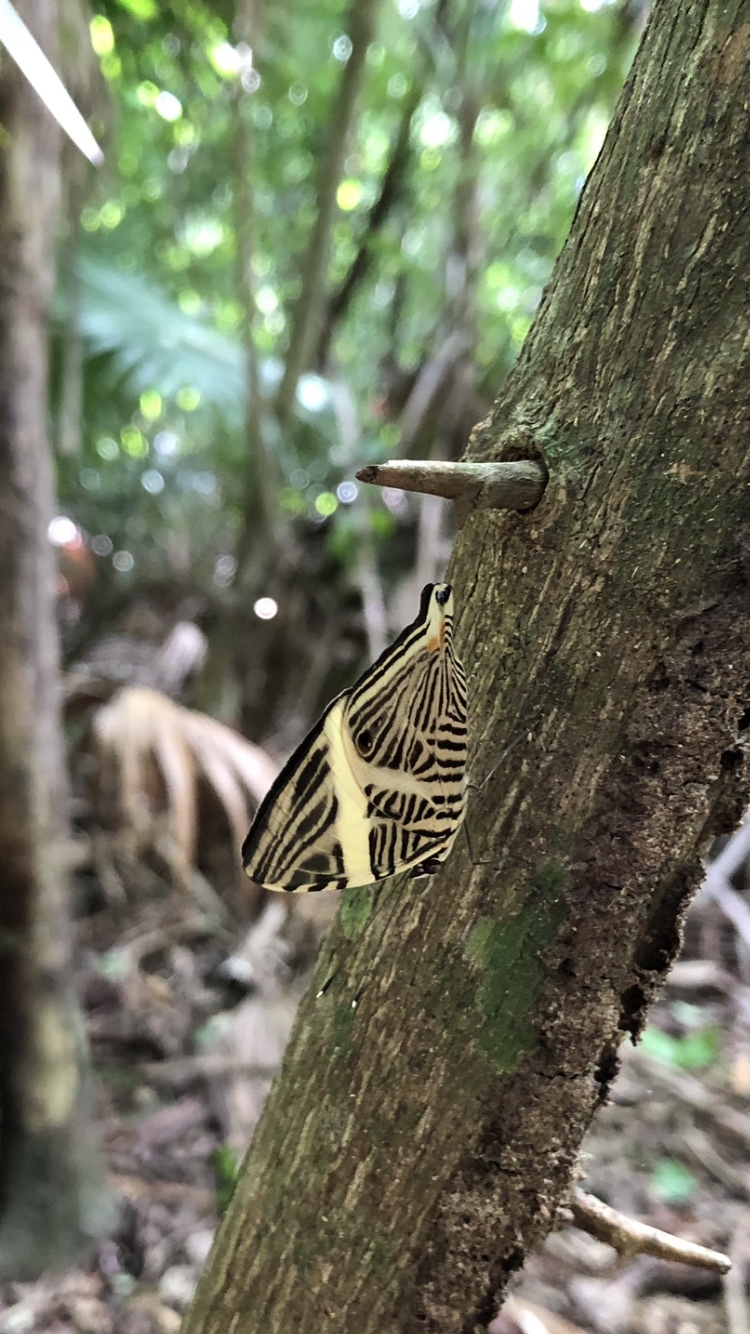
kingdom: Animalia
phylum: Arthropoda
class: Insecta
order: Lepidoptera
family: Nymphalidae
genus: Colobura
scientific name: Colobura dirce
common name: Dirce beauty
